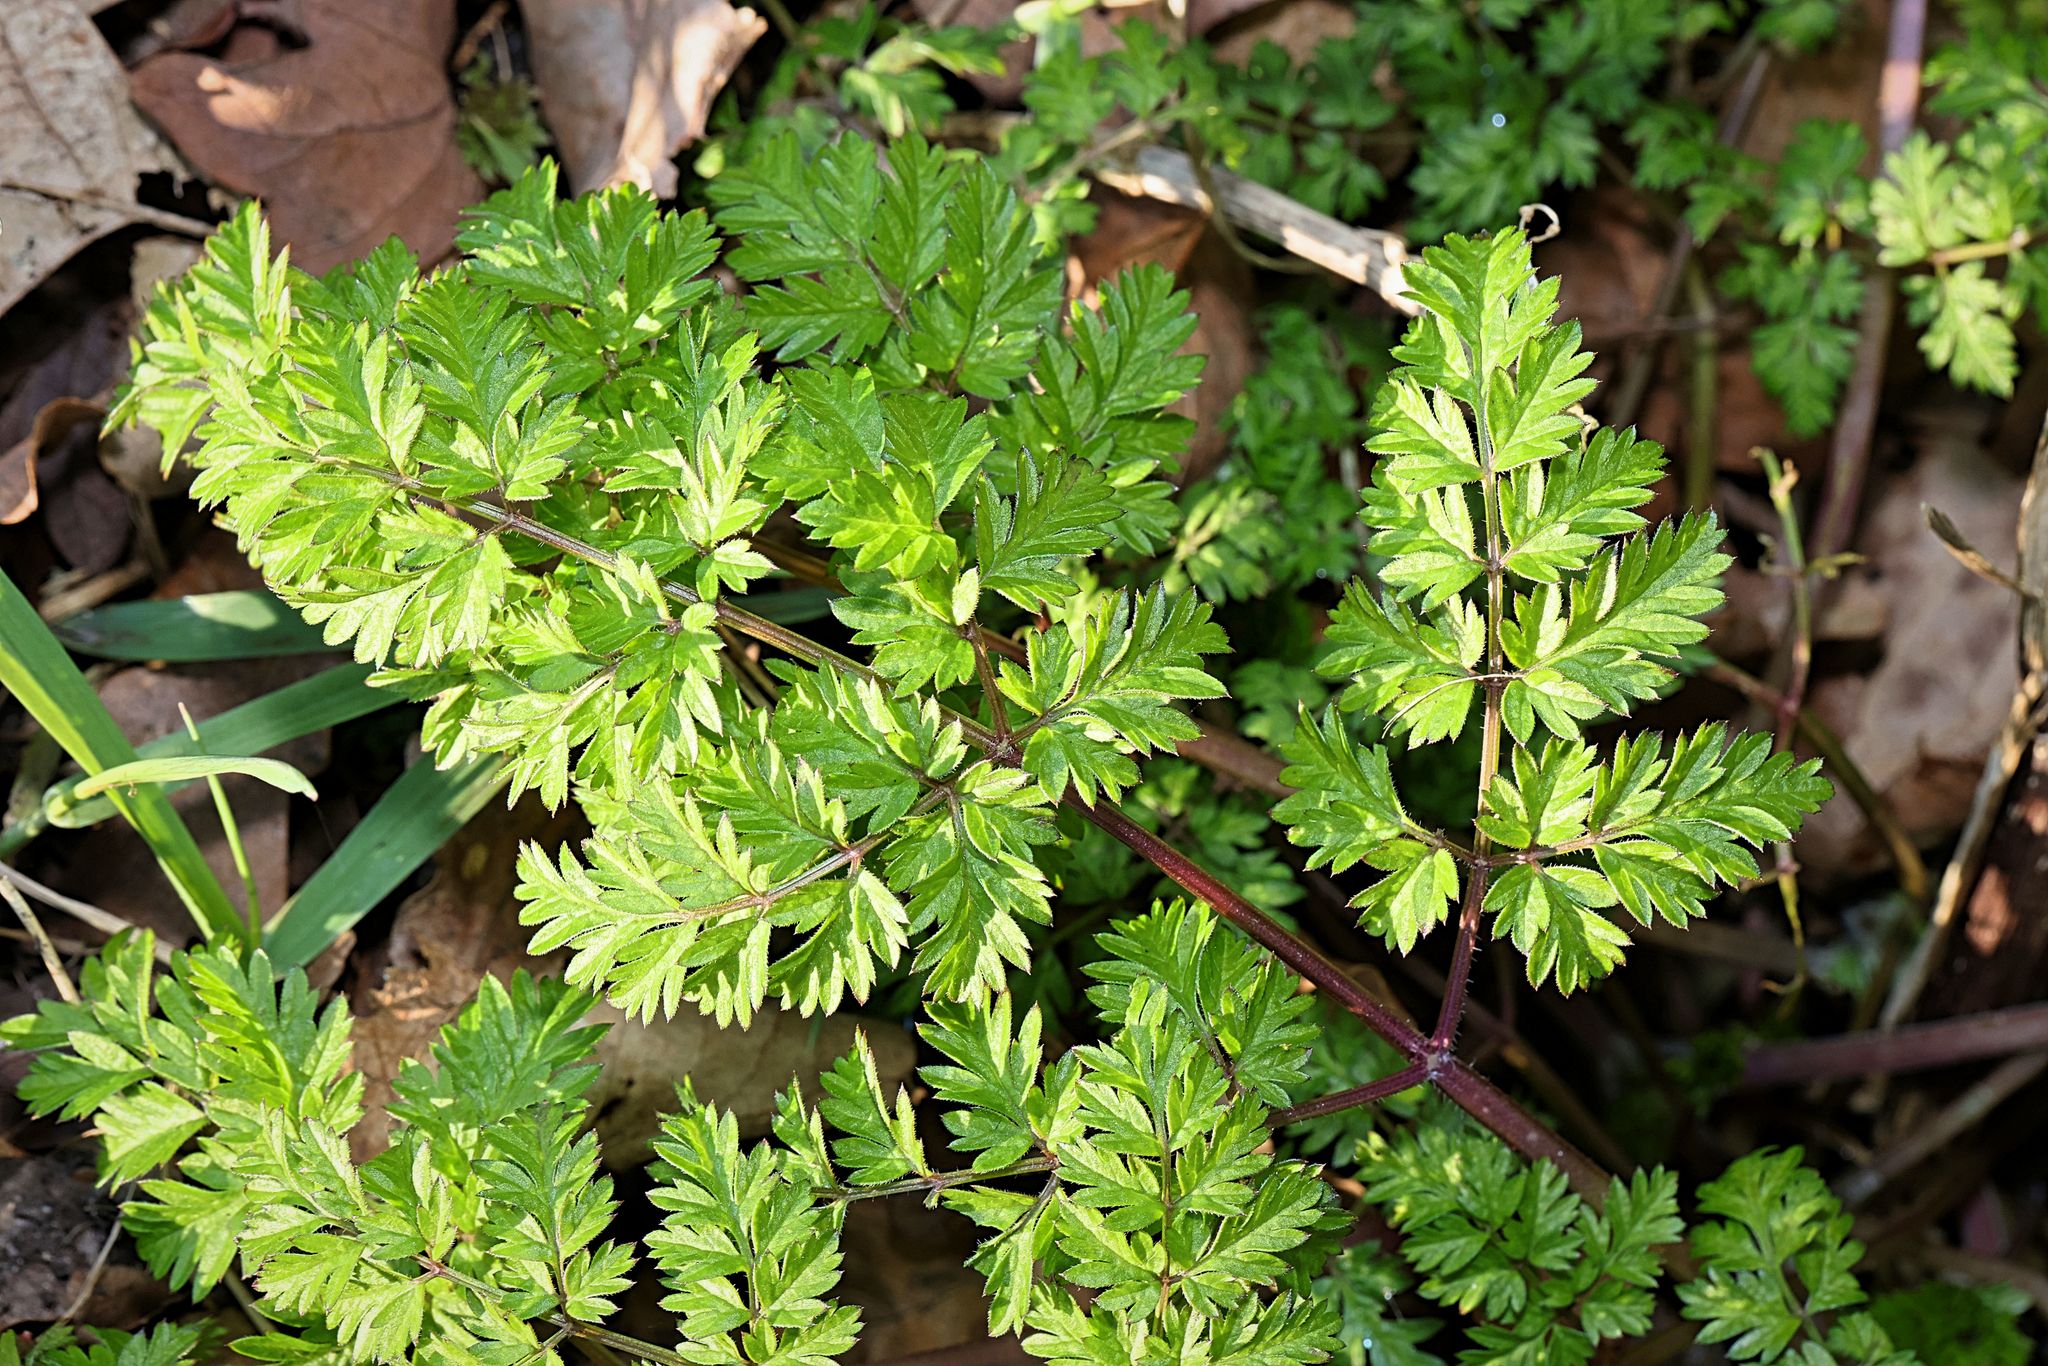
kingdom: Plantae
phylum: Tracheophyta
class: Magnoliopsida
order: Apiales
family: Apiaceae
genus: Anthriscus
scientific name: Anthriscus sylvestris
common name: Cow parsley
